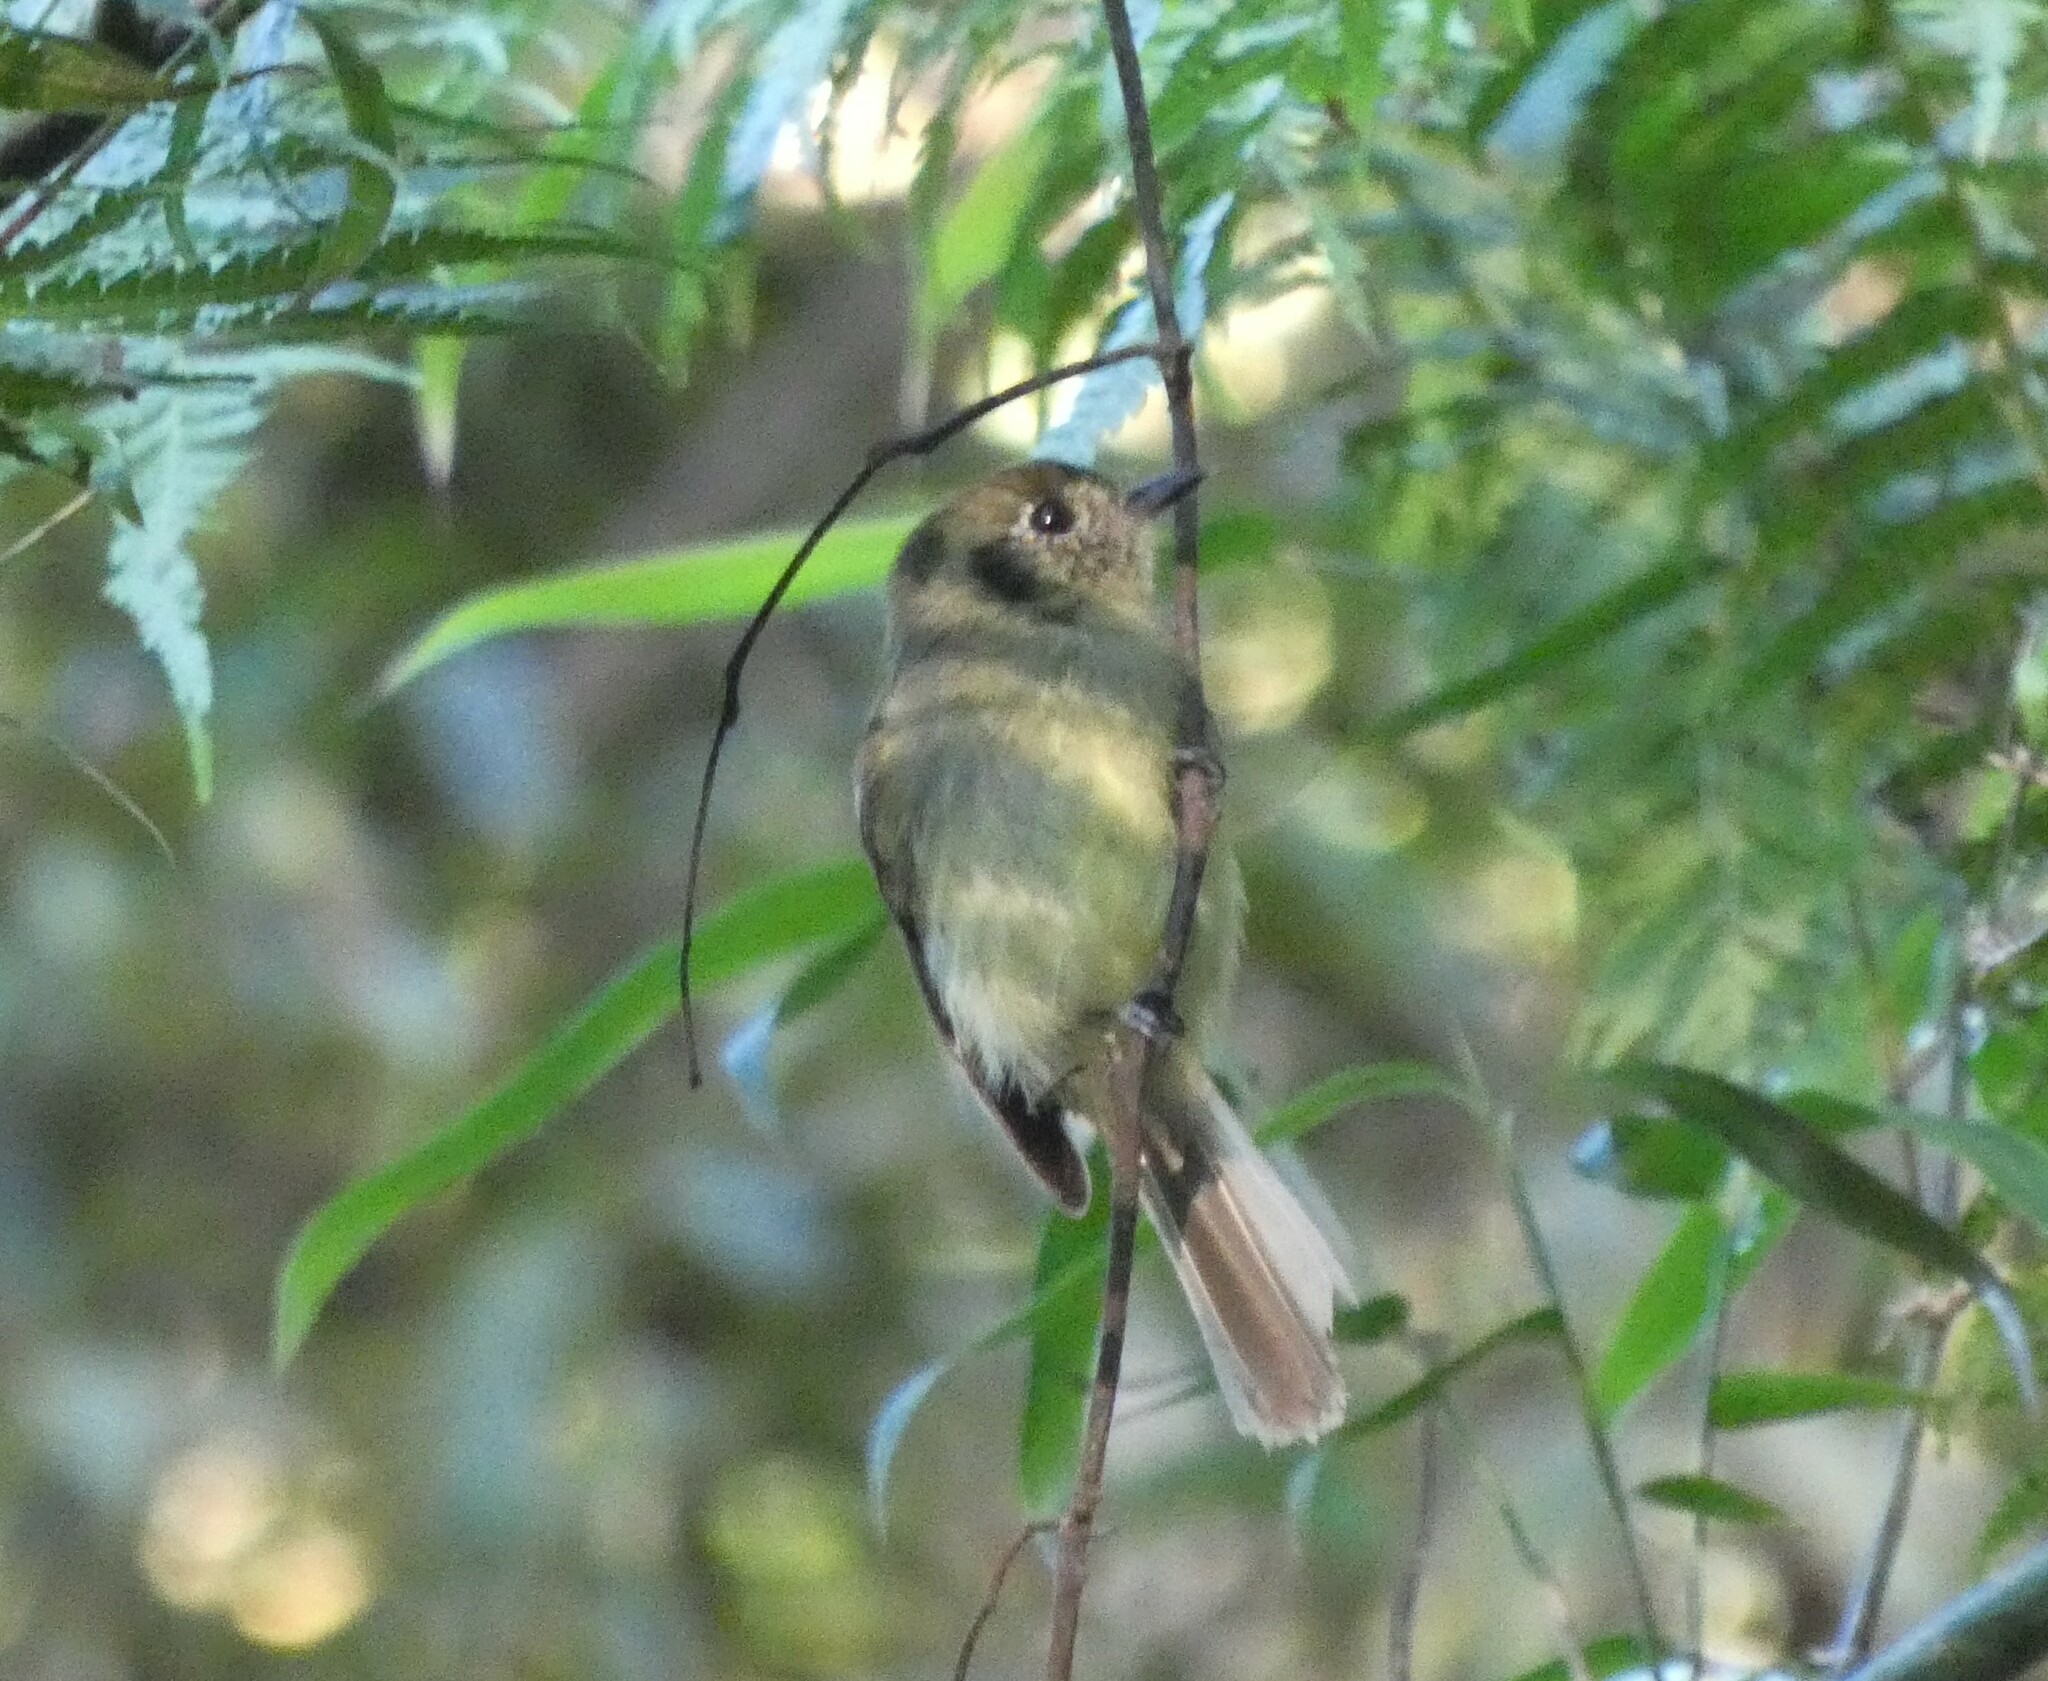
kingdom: Animalia
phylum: Chordata
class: Aves
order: Passeriformes
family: Tyrannidae
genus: Leptopogon
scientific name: Leptopogon amaurocephalus
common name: Sepia-capped flycatcher
